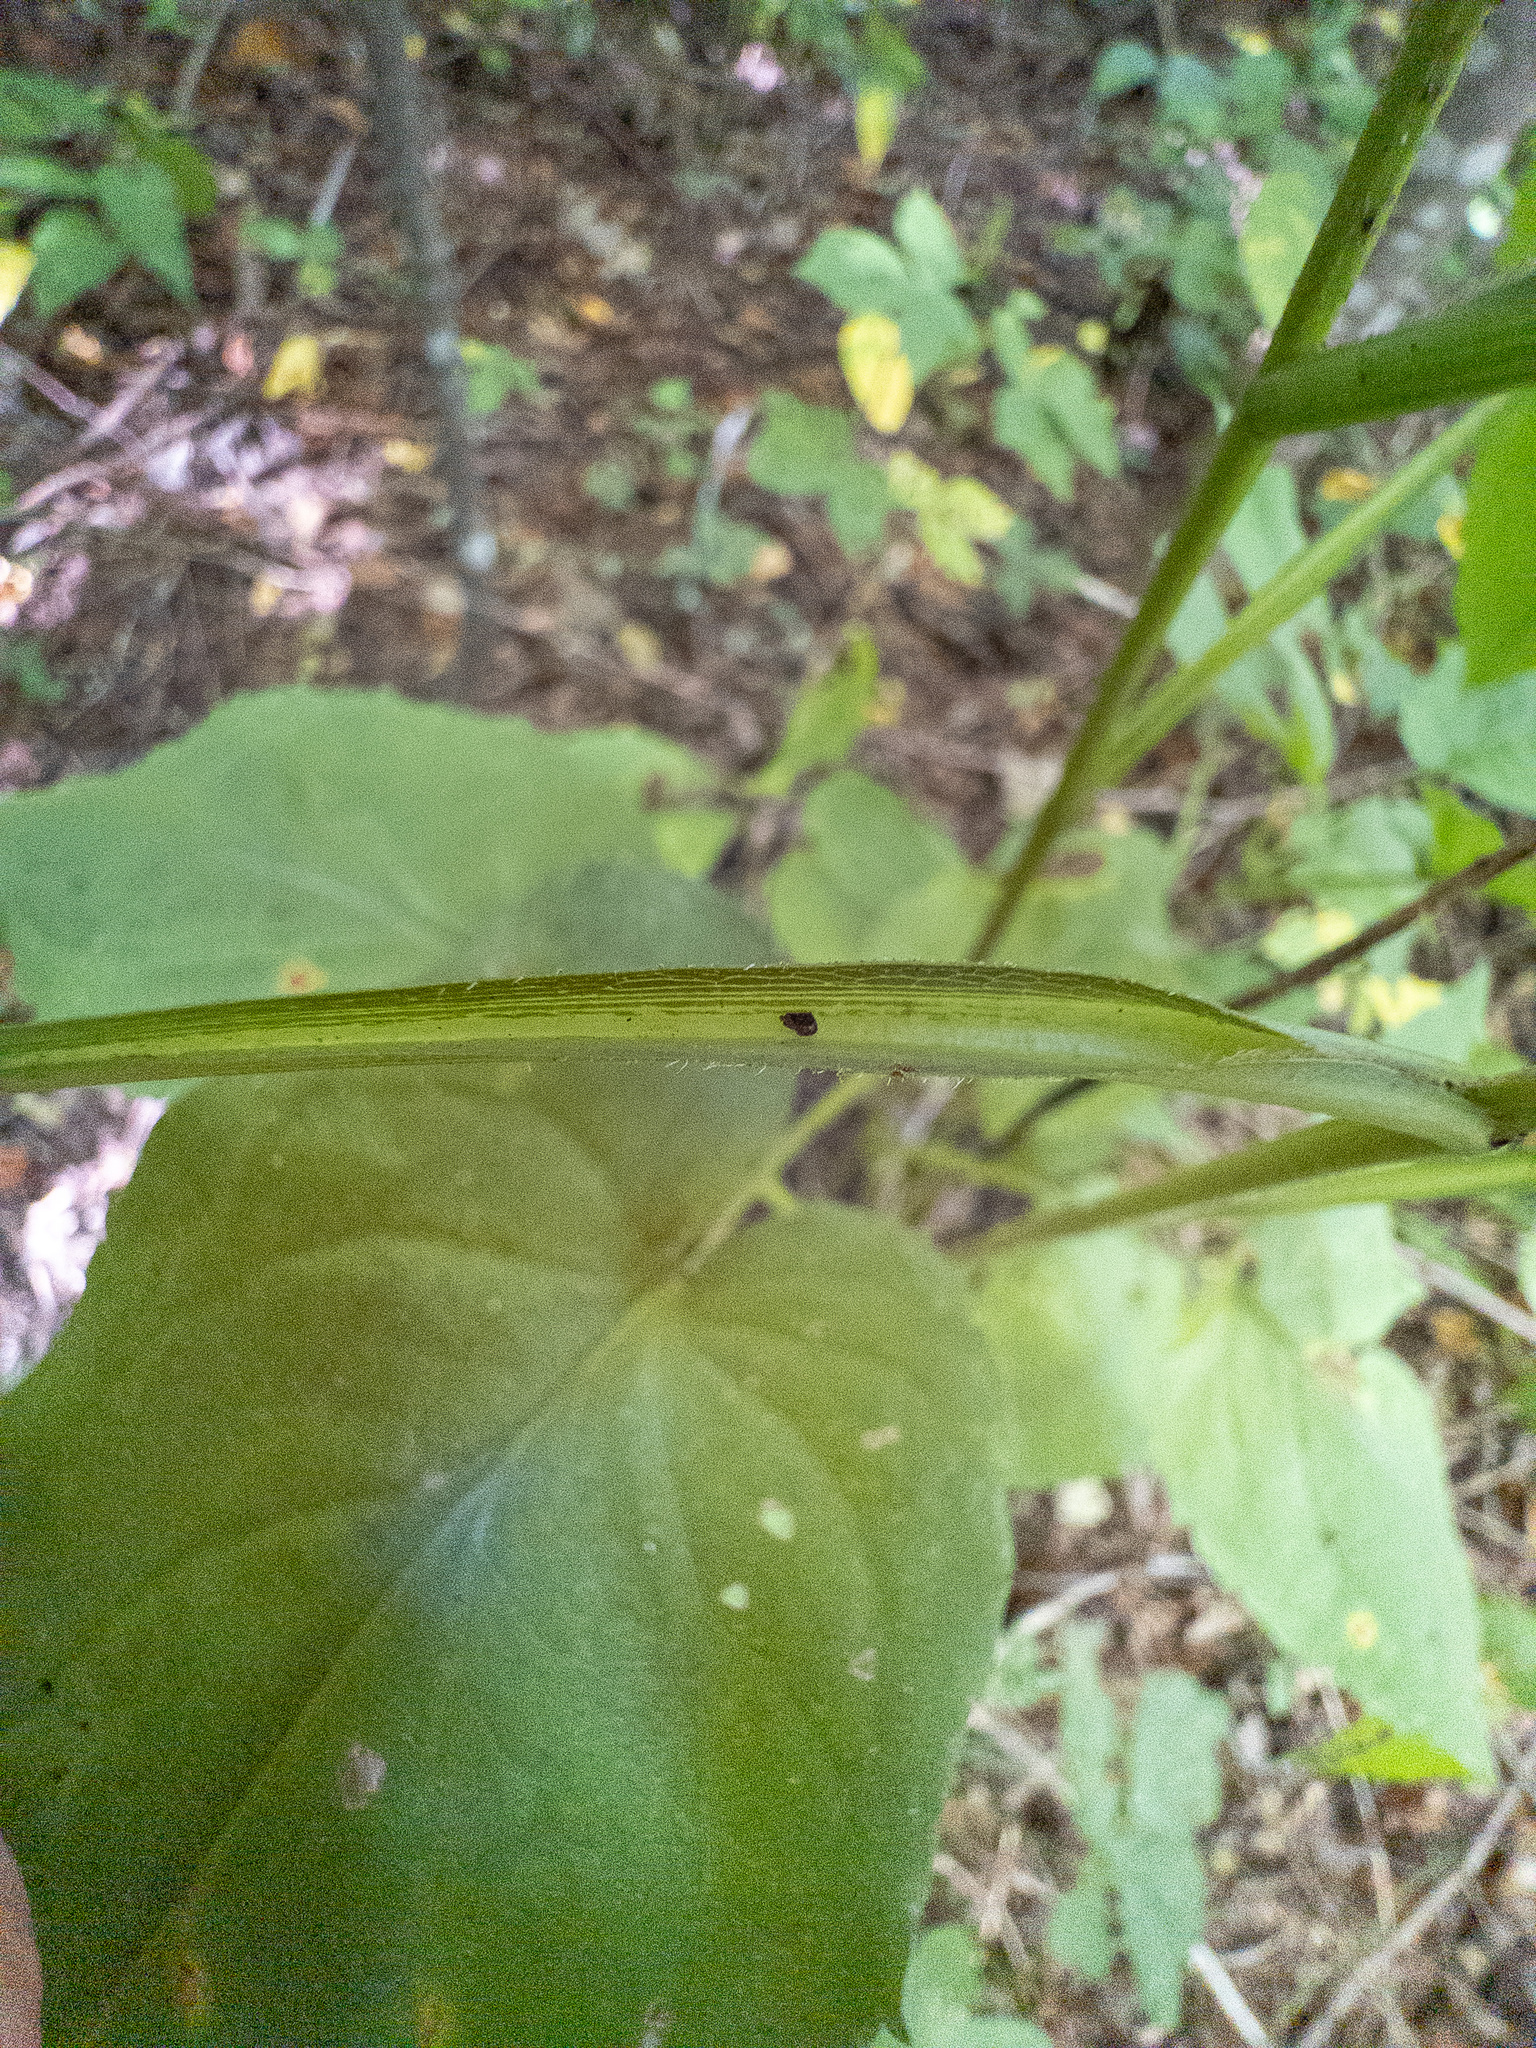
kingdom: Plantae
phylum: Tracheophyta
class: Magnoliopsida
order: Asterales
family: Asteraceae
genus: Symphyotrichum
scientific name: Symphyotrichum cordifolium
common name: Beeweed
